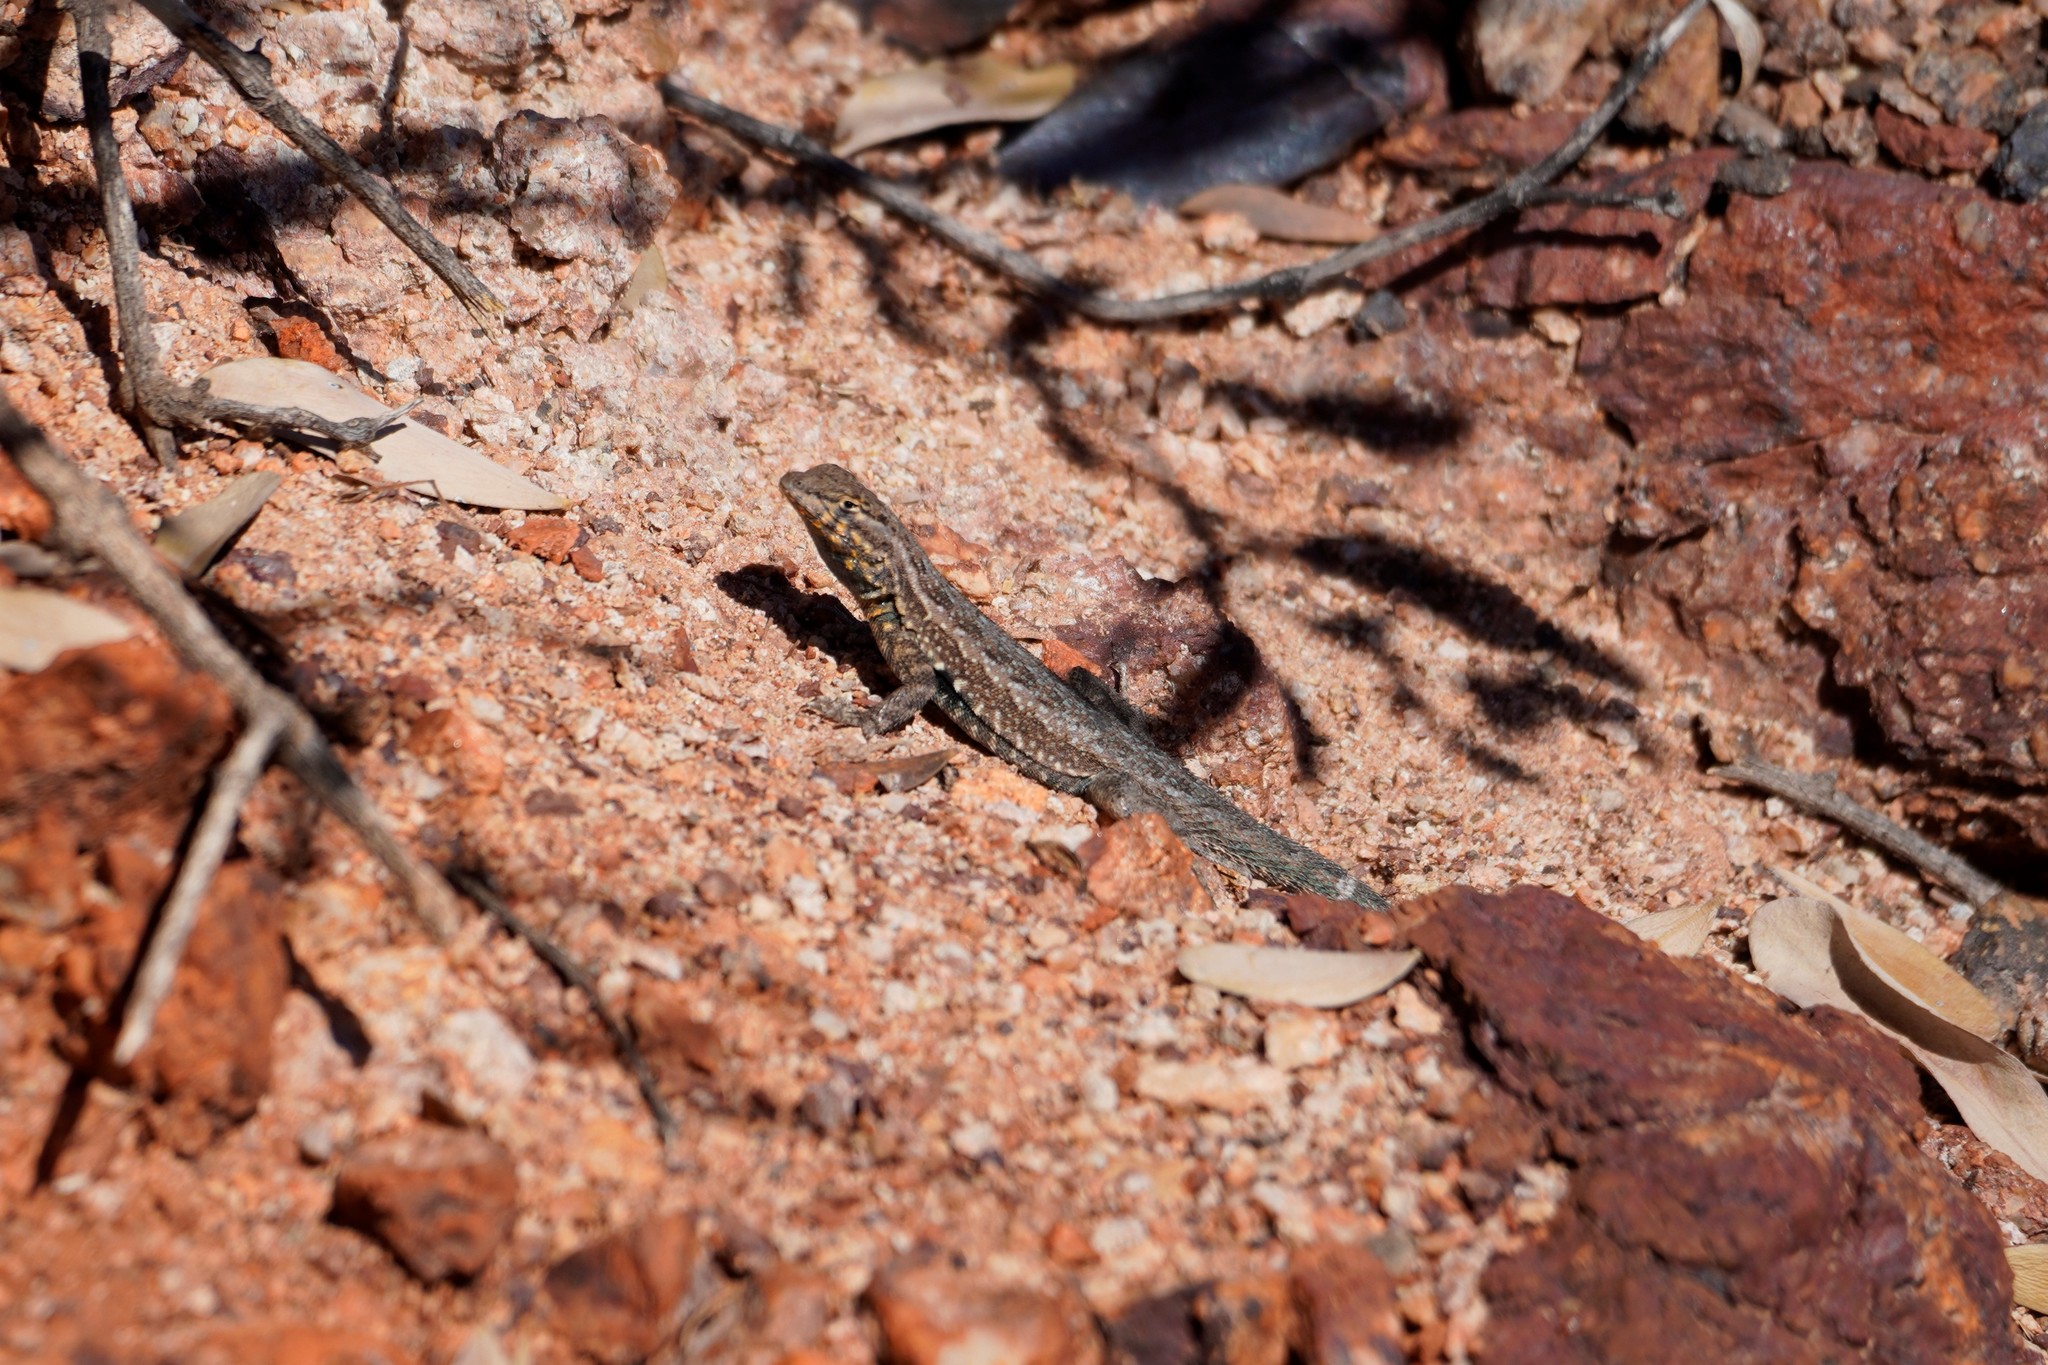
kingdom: Animalia
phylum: Chordata
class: Squamata
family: Phrynosomatidae
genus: Uta
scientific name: Uta stansburiana
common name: Side-blotched lizard
